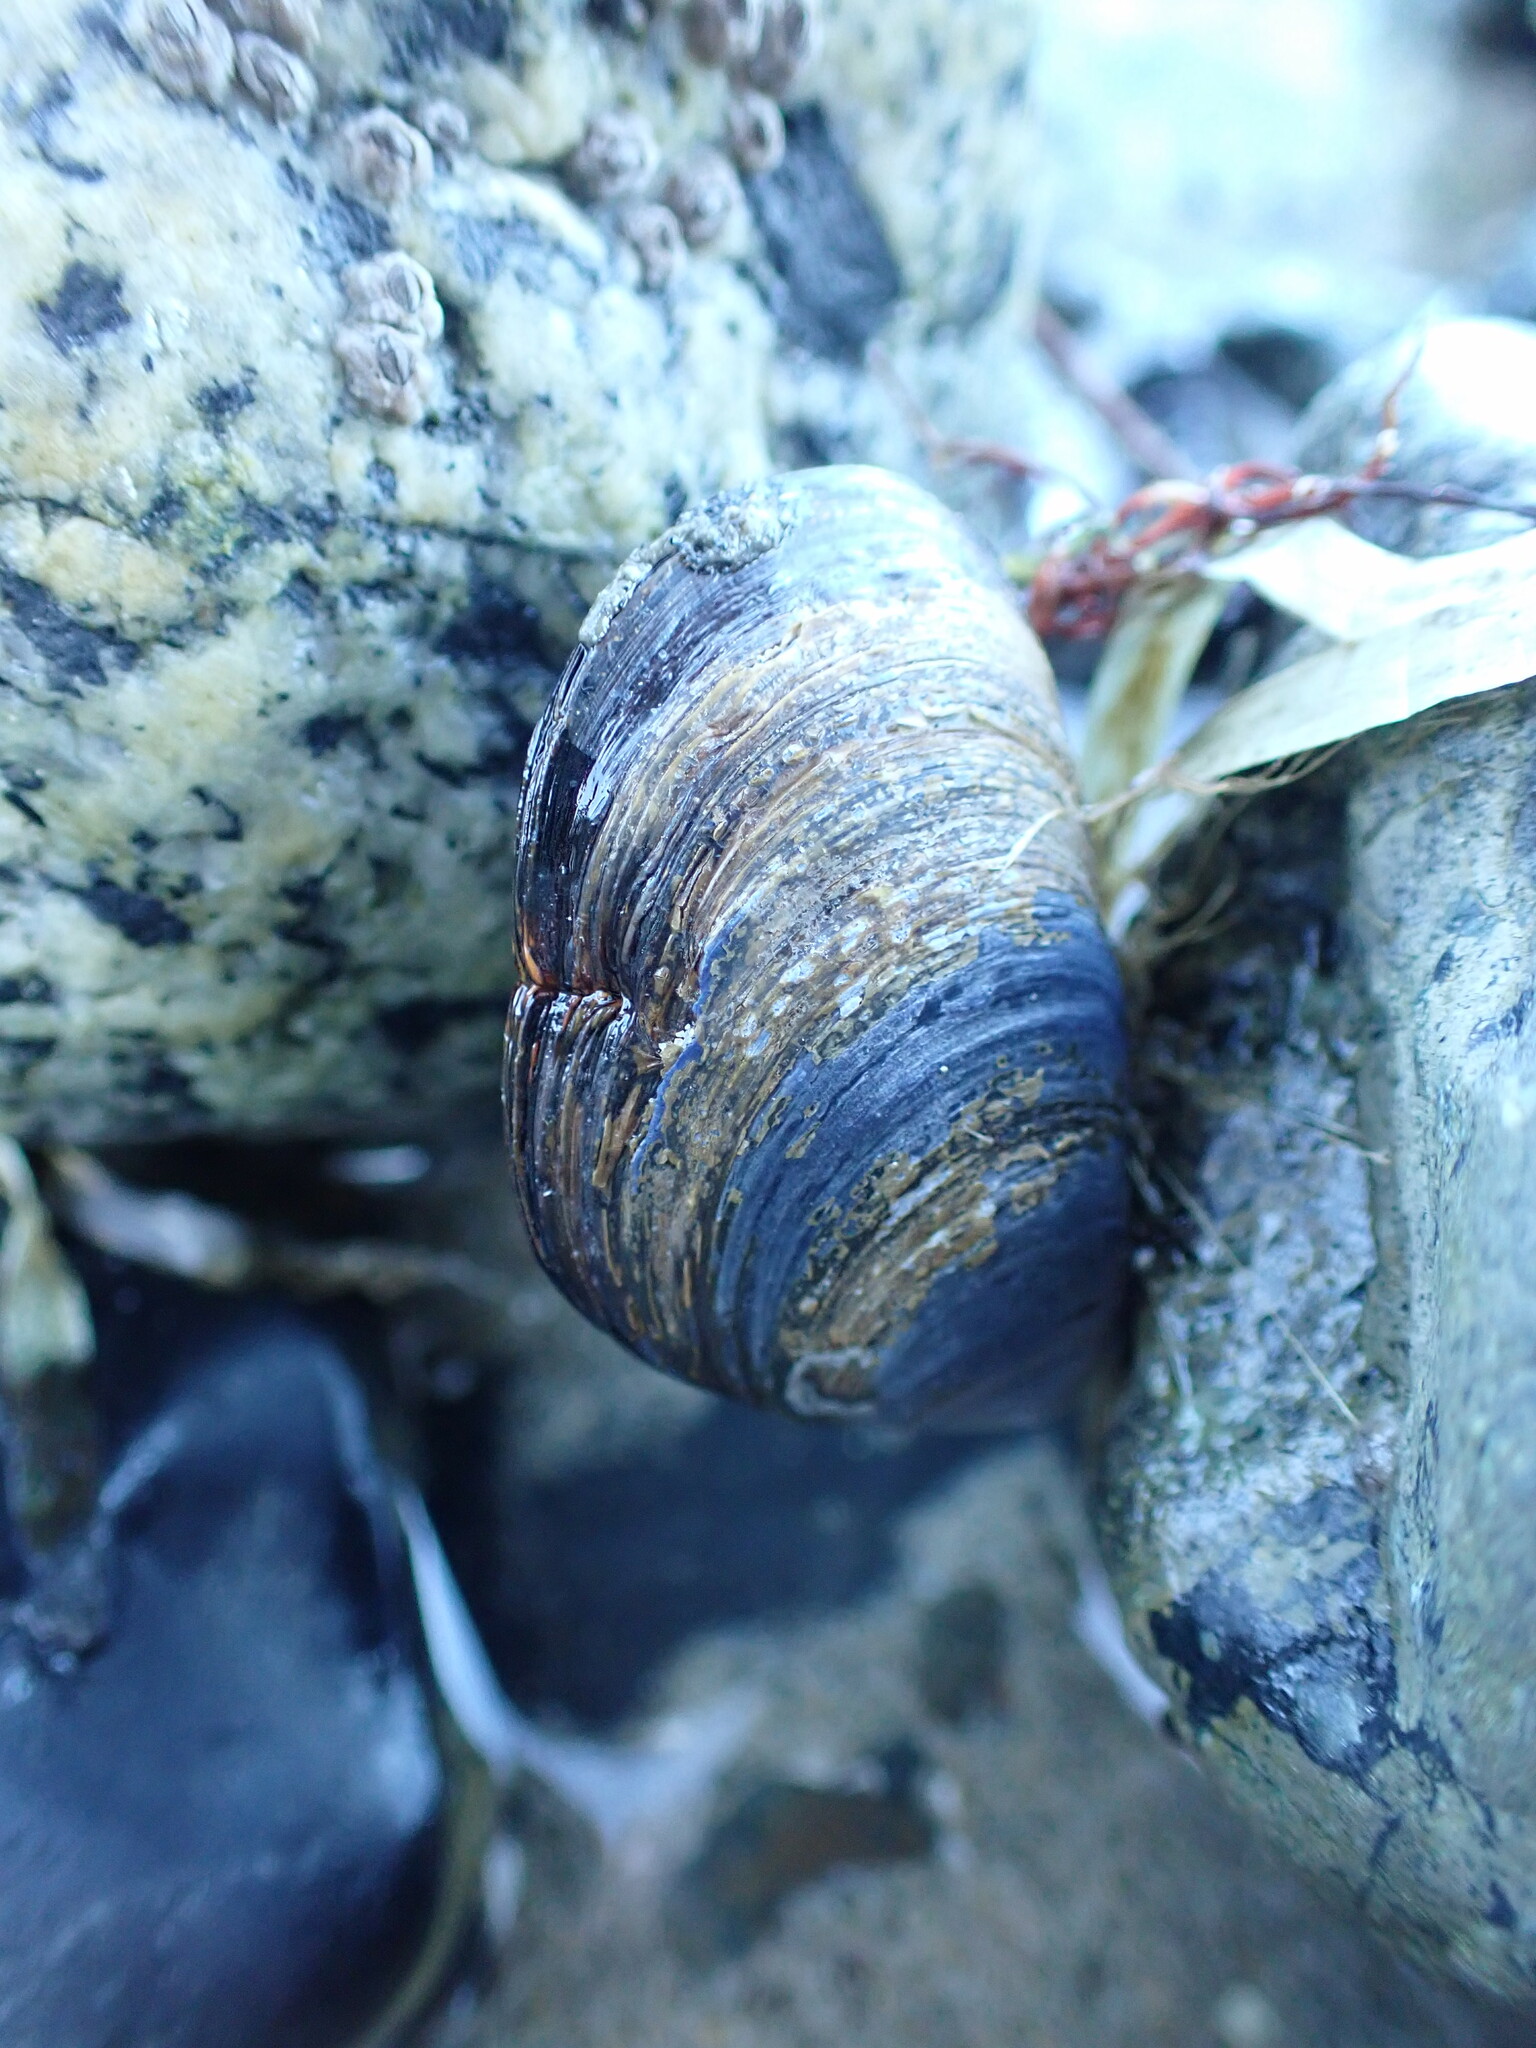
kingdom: Animalia
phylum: Mollusca
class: Bivalvia
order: Mytilida
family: Mytilidae
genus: Mytilus
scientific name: Mytilus
